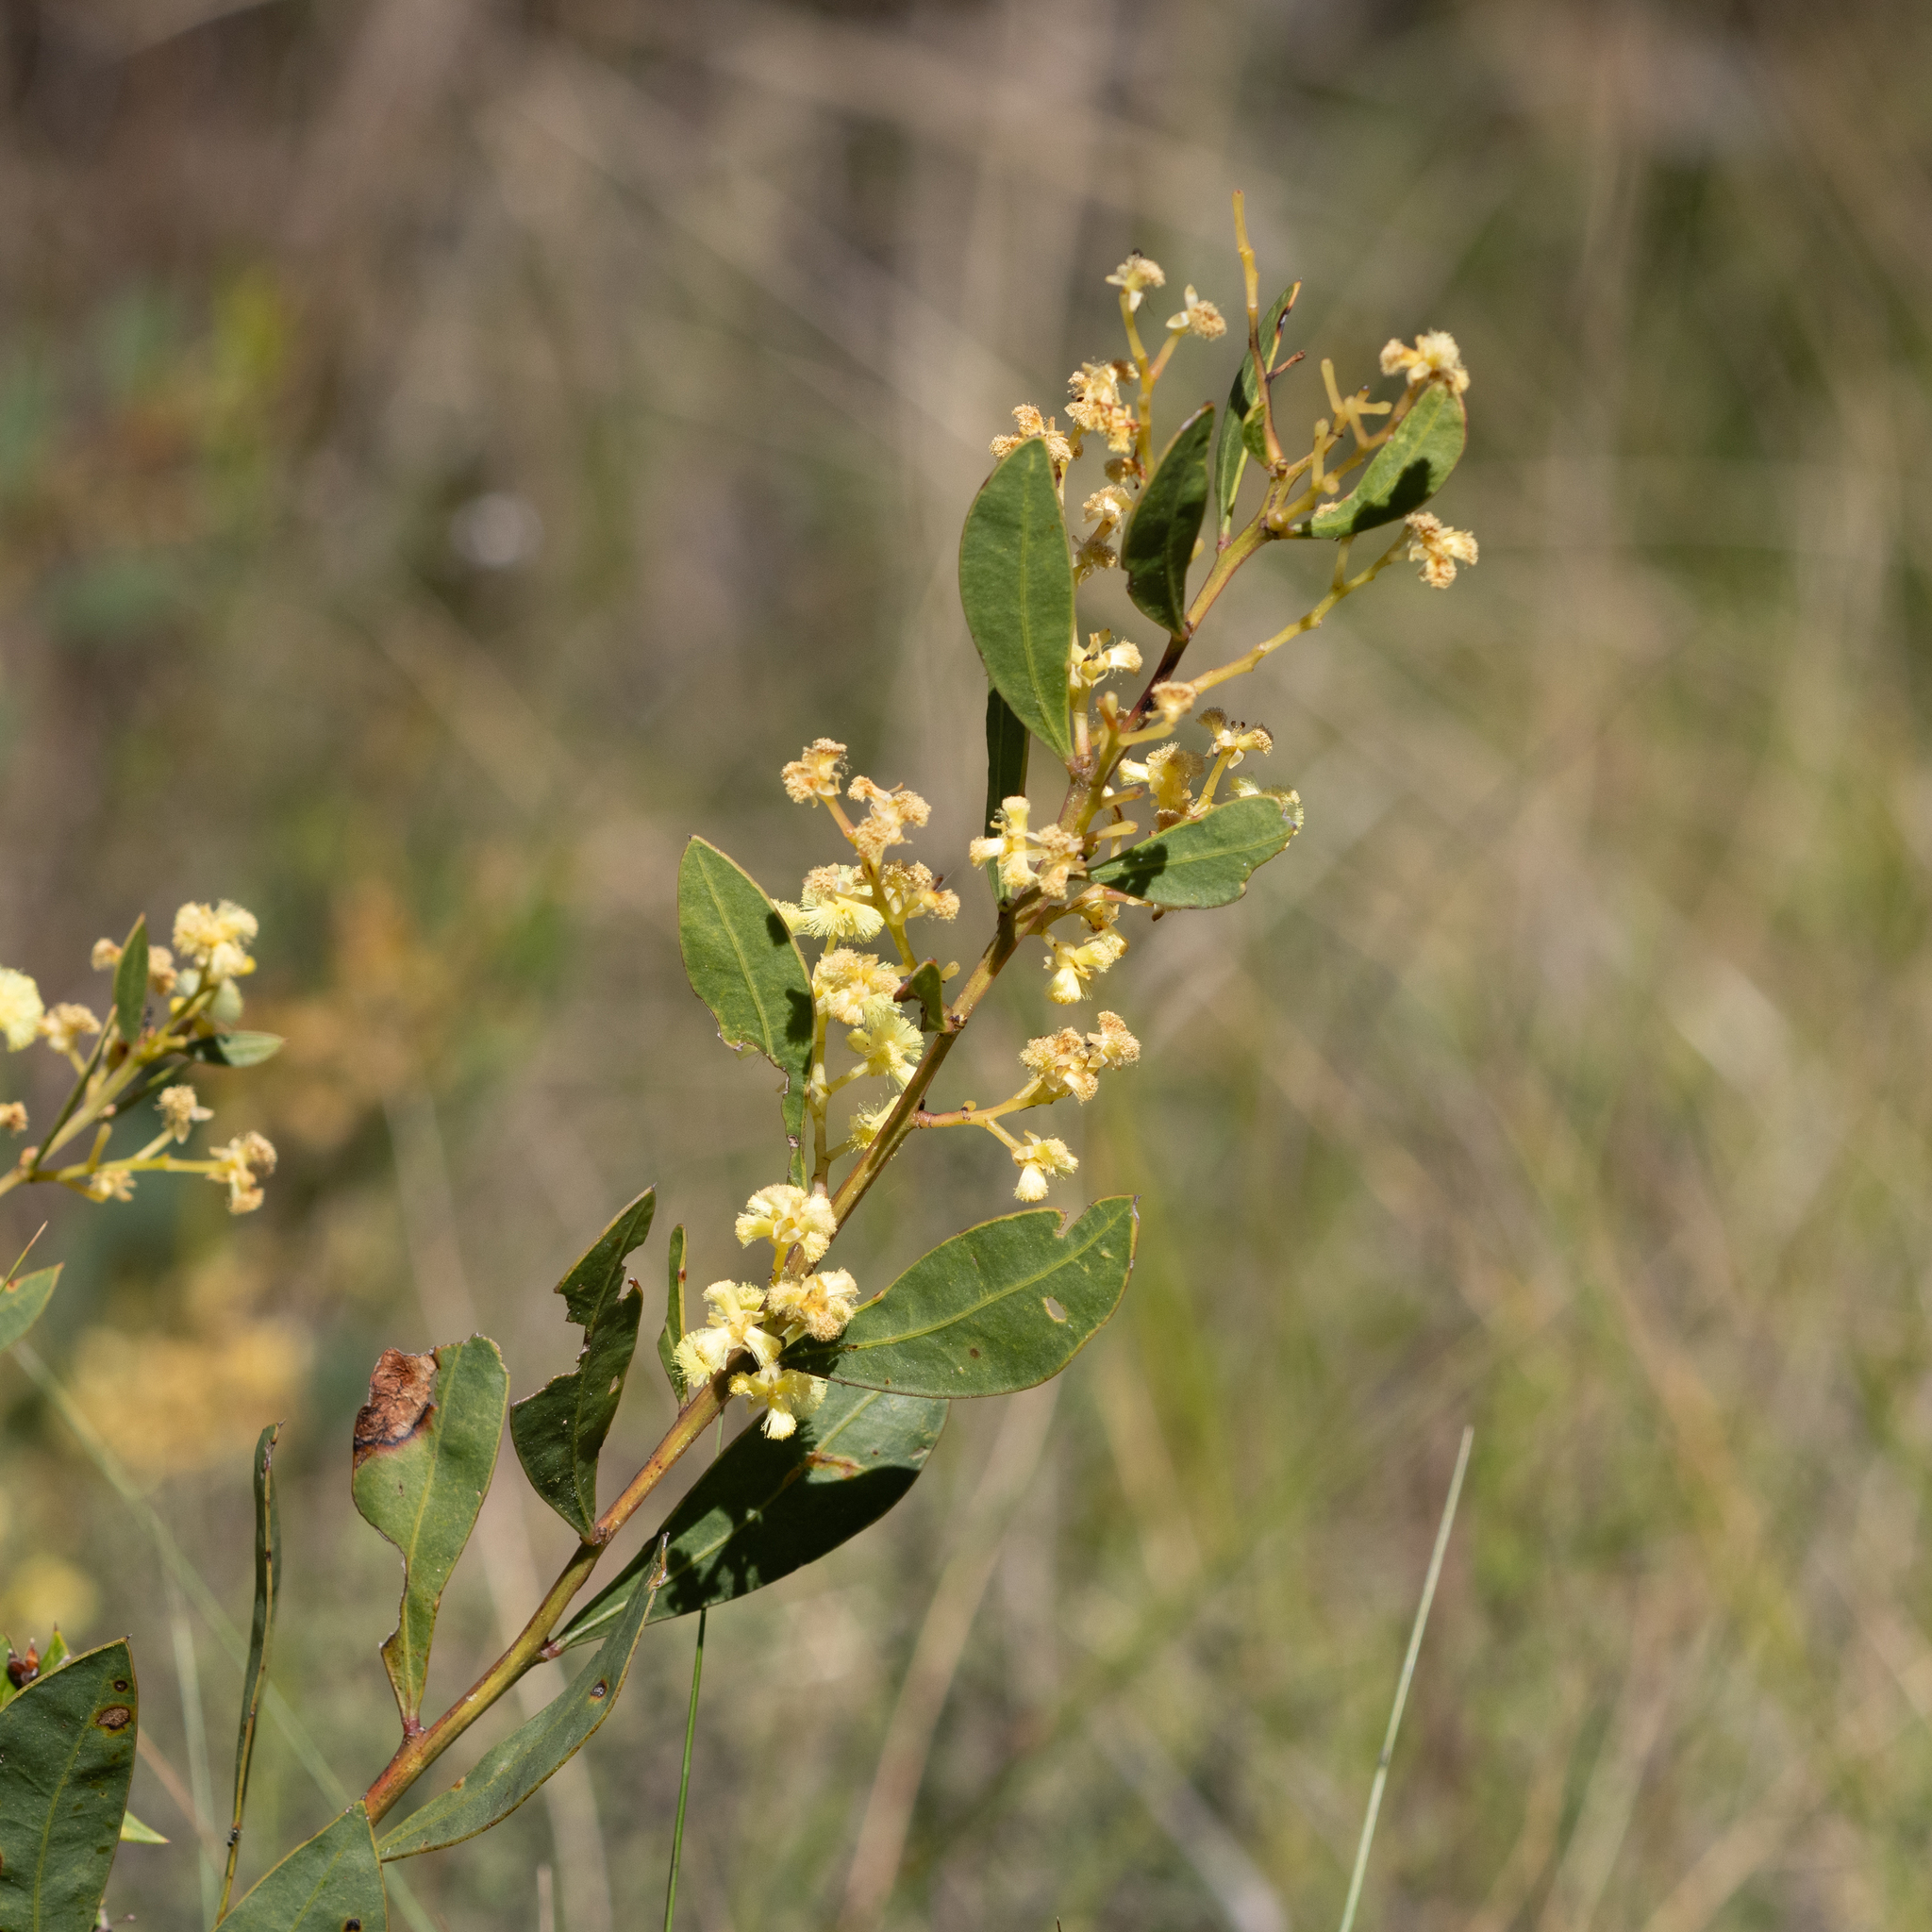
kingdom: Plantae
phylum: Tracheophyta
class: Magnoliopsida
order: Fabales
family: Fabaceae
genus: Acacia
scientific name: Acacia myrtifolia
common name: Myrtle wattle
